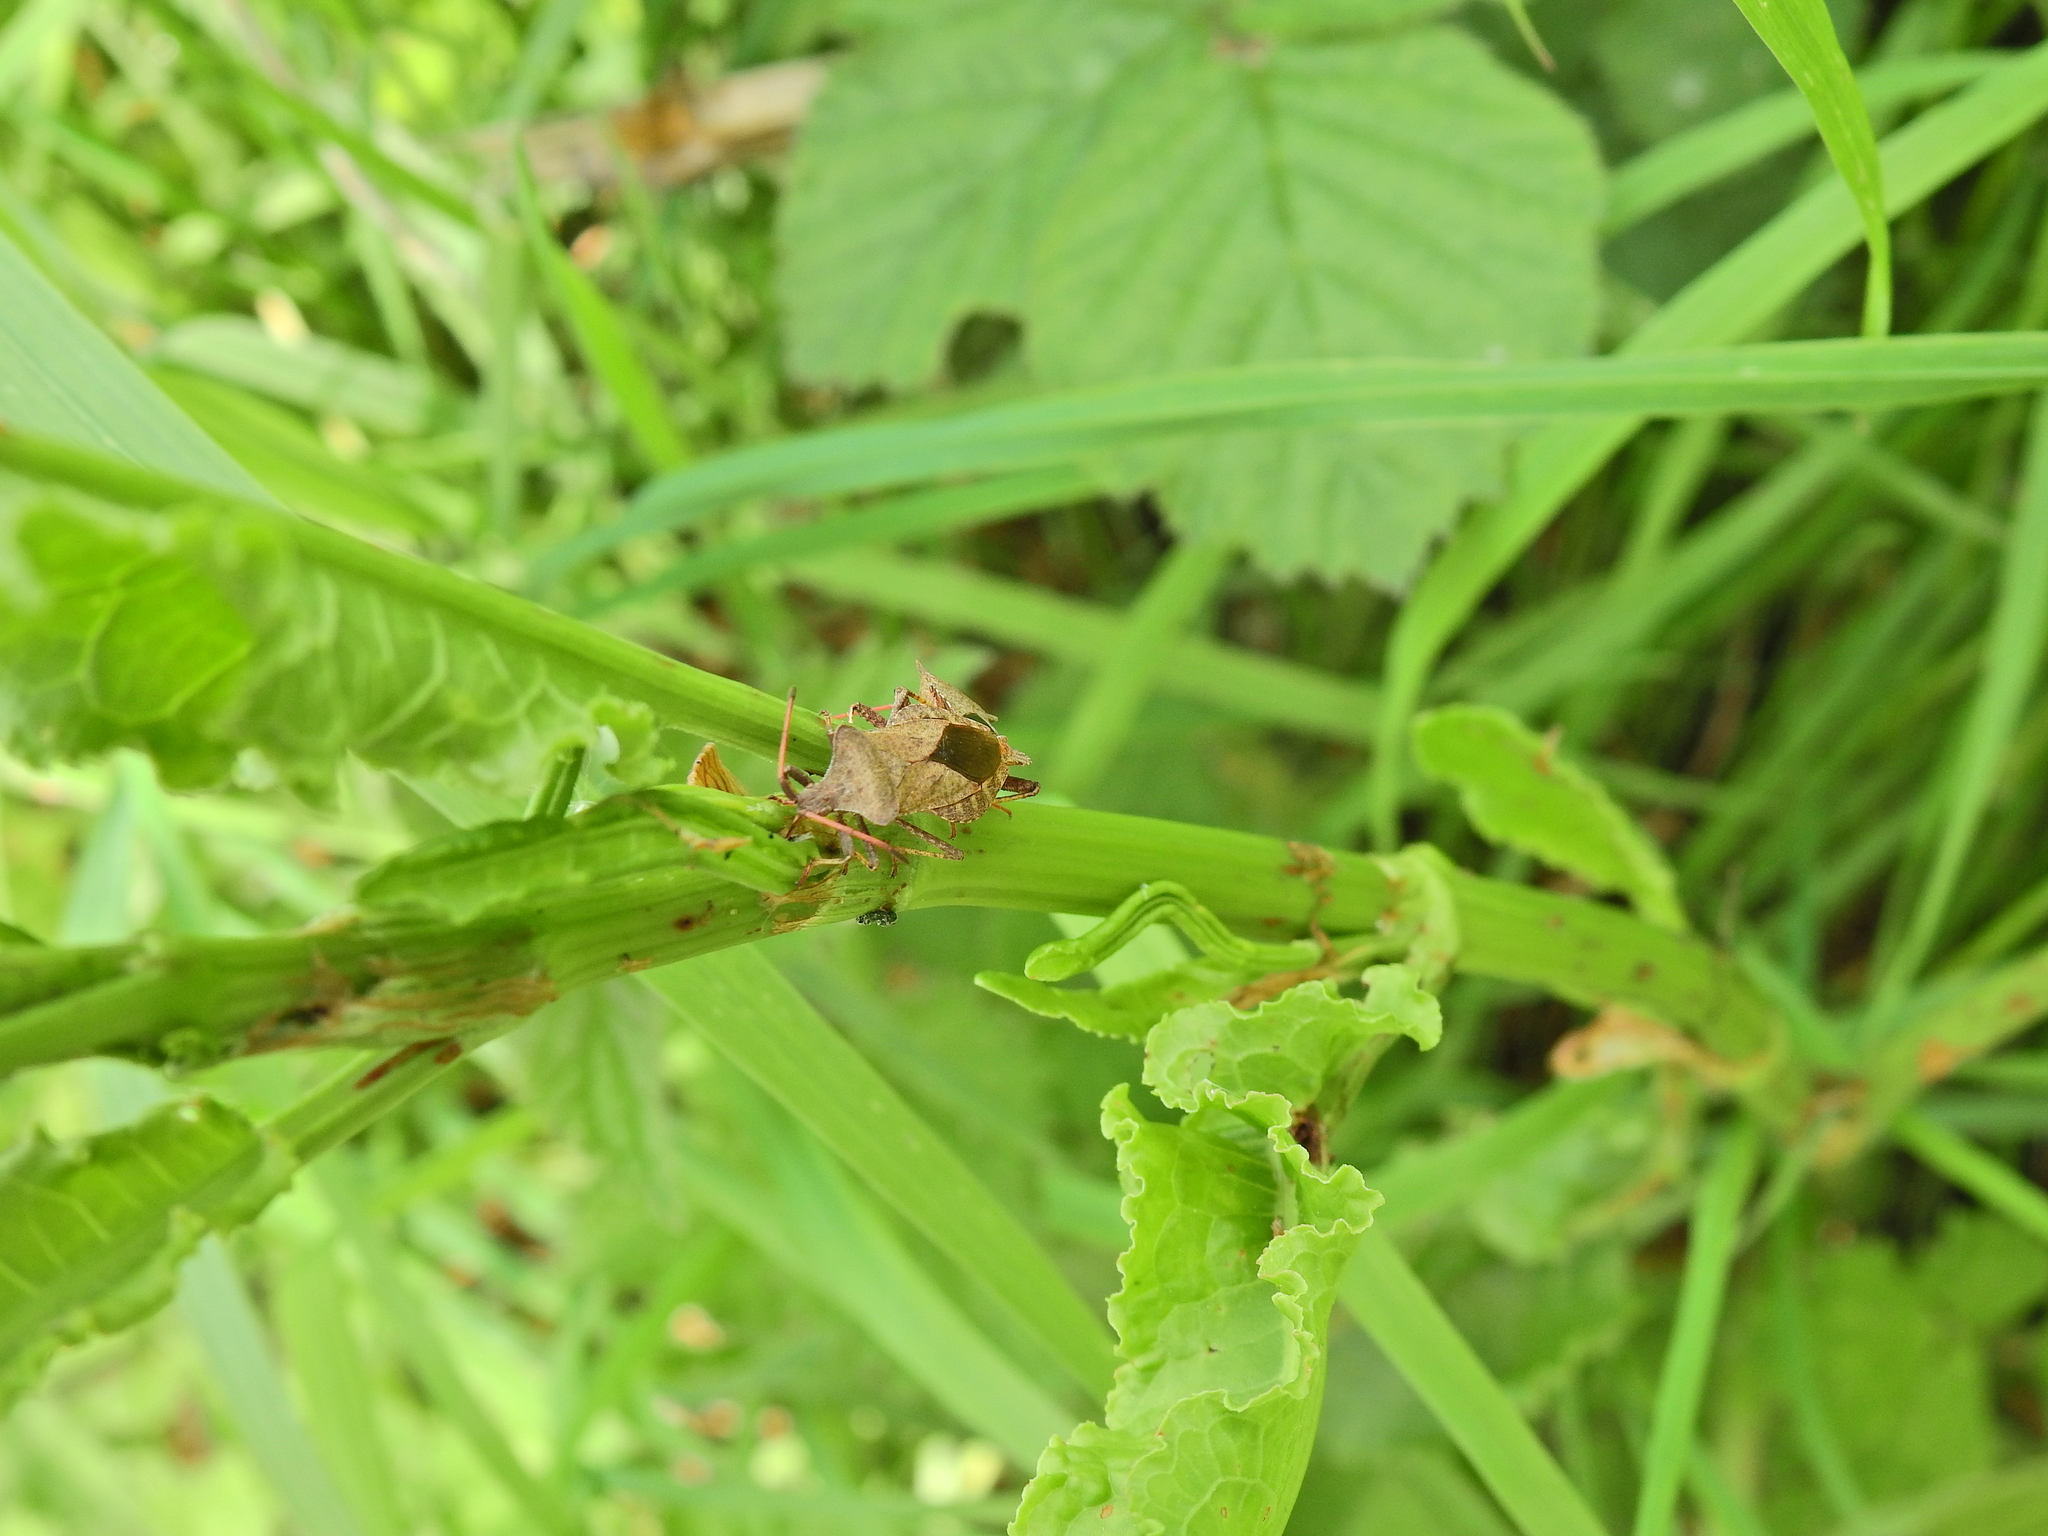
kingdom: Animalia
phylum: Arthropoda
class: Insecta
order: Hemiptera
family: Coreidae
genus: Coreus
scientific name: Coreus marginatus
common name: Dock bug
